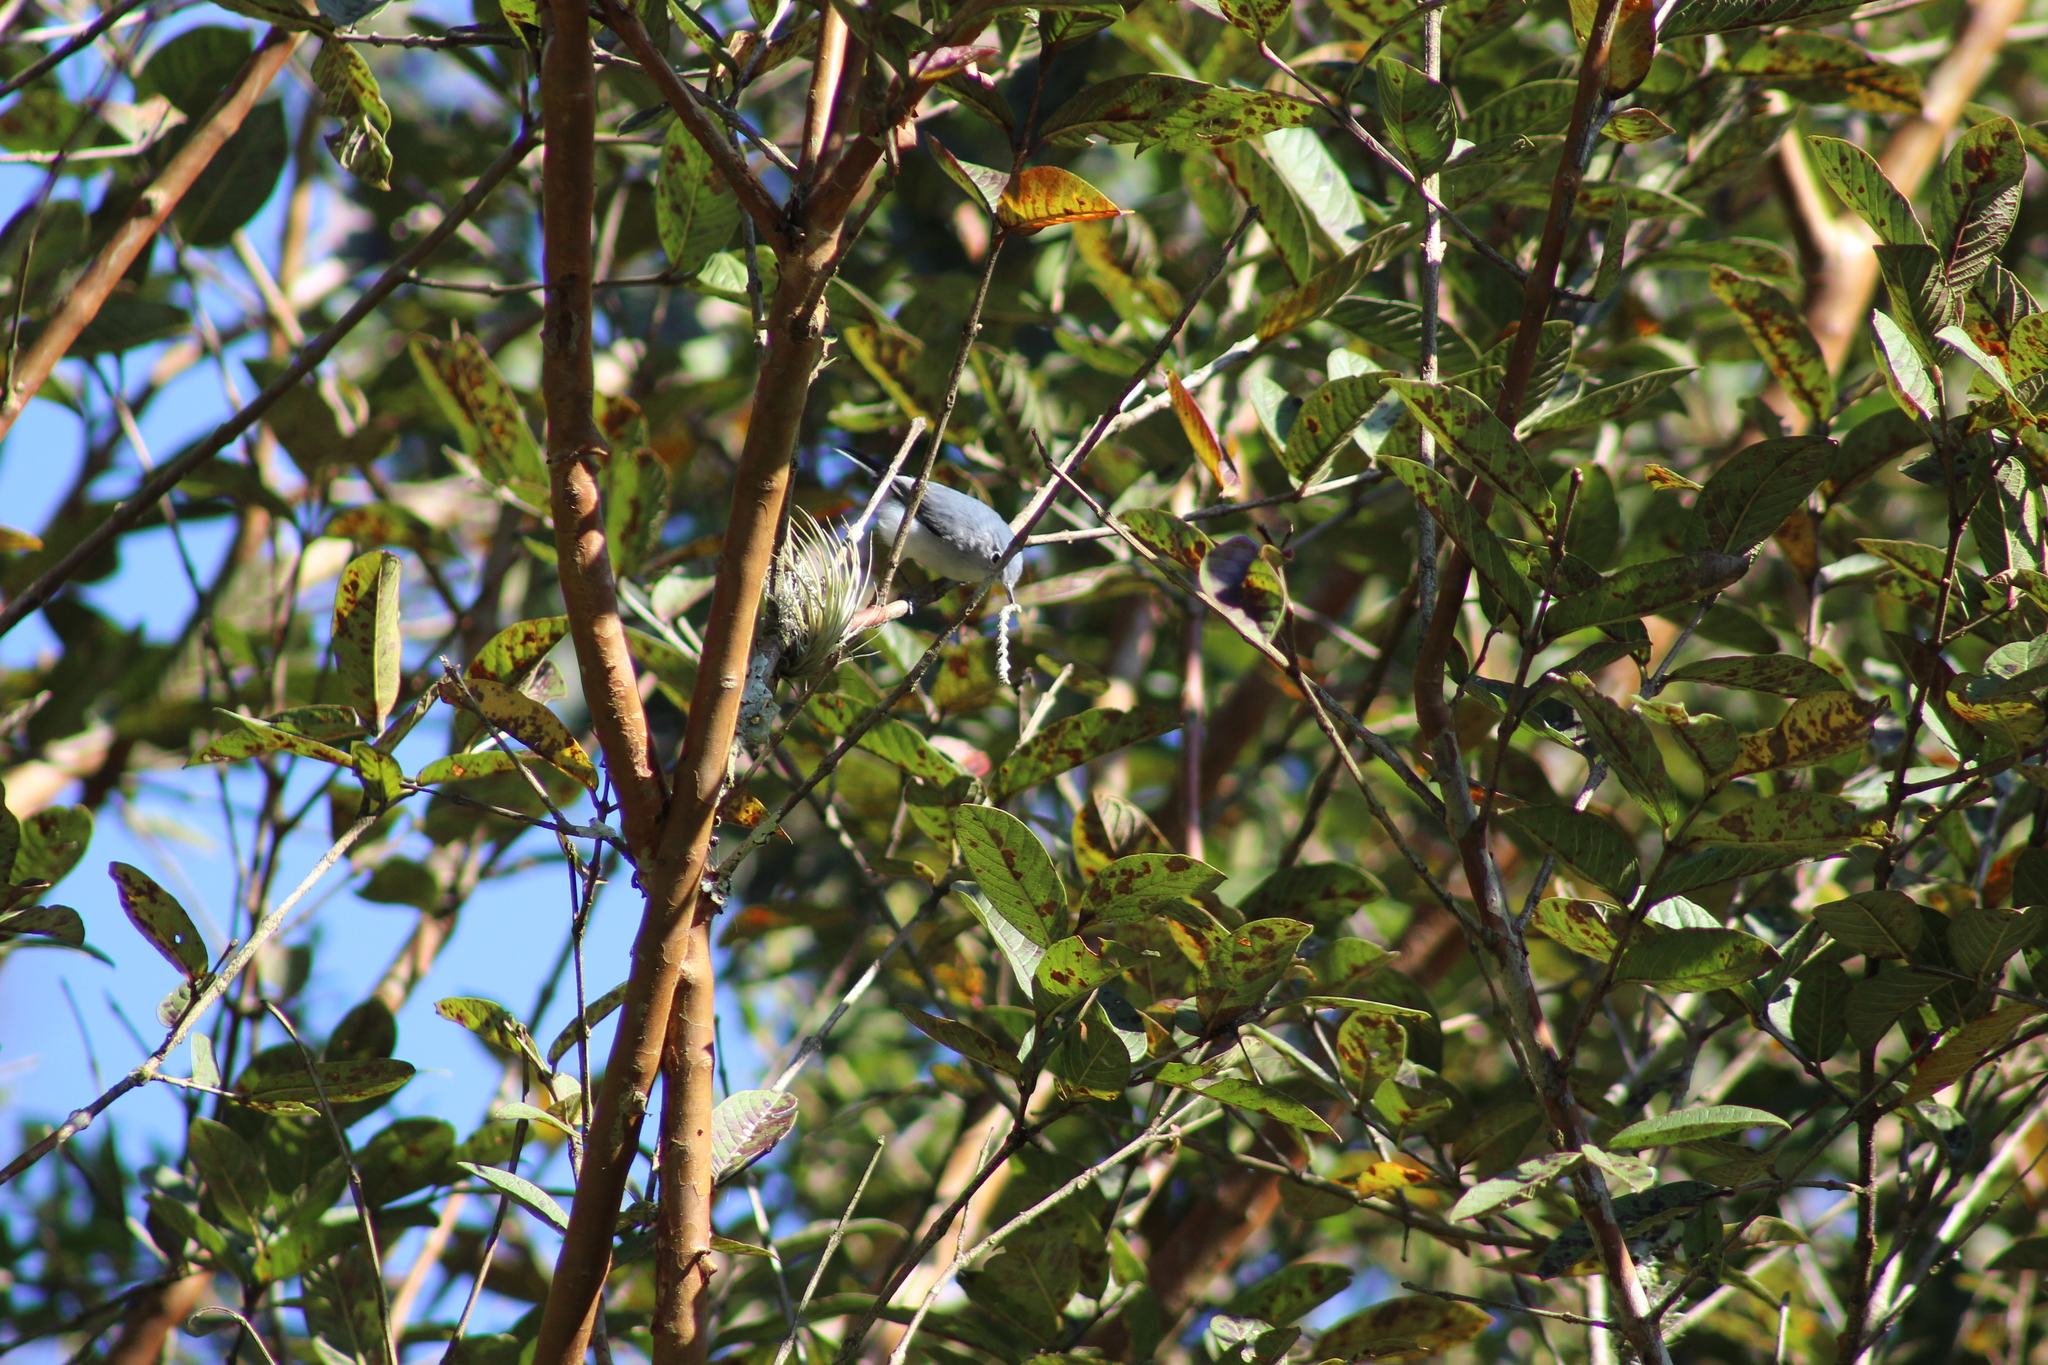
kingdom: Animalia
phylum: Chordata
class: Aves
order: Passeriformes
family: Polioptilidae
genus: Polioptila
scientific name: Polioptila caerulea
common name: Blue-gray gnatcatcher
